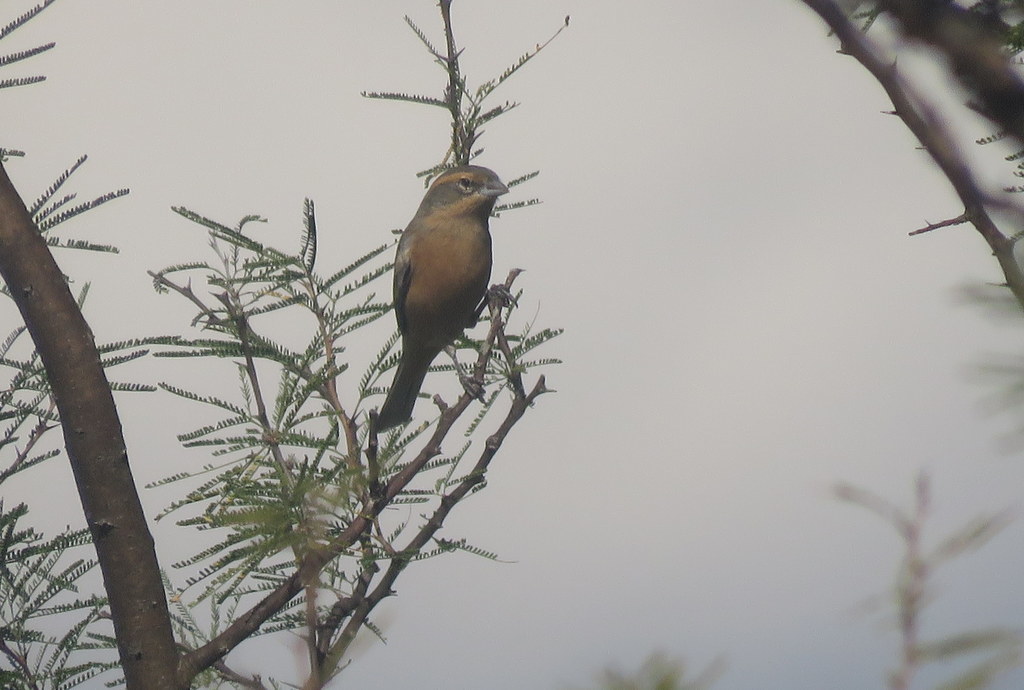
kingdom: Animalia
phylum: Chordata
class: Aves
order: Passeriformes
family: Thraupidae
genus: Poospiza
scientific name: Poospiza ornata
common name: Cinnamon warbling finch
